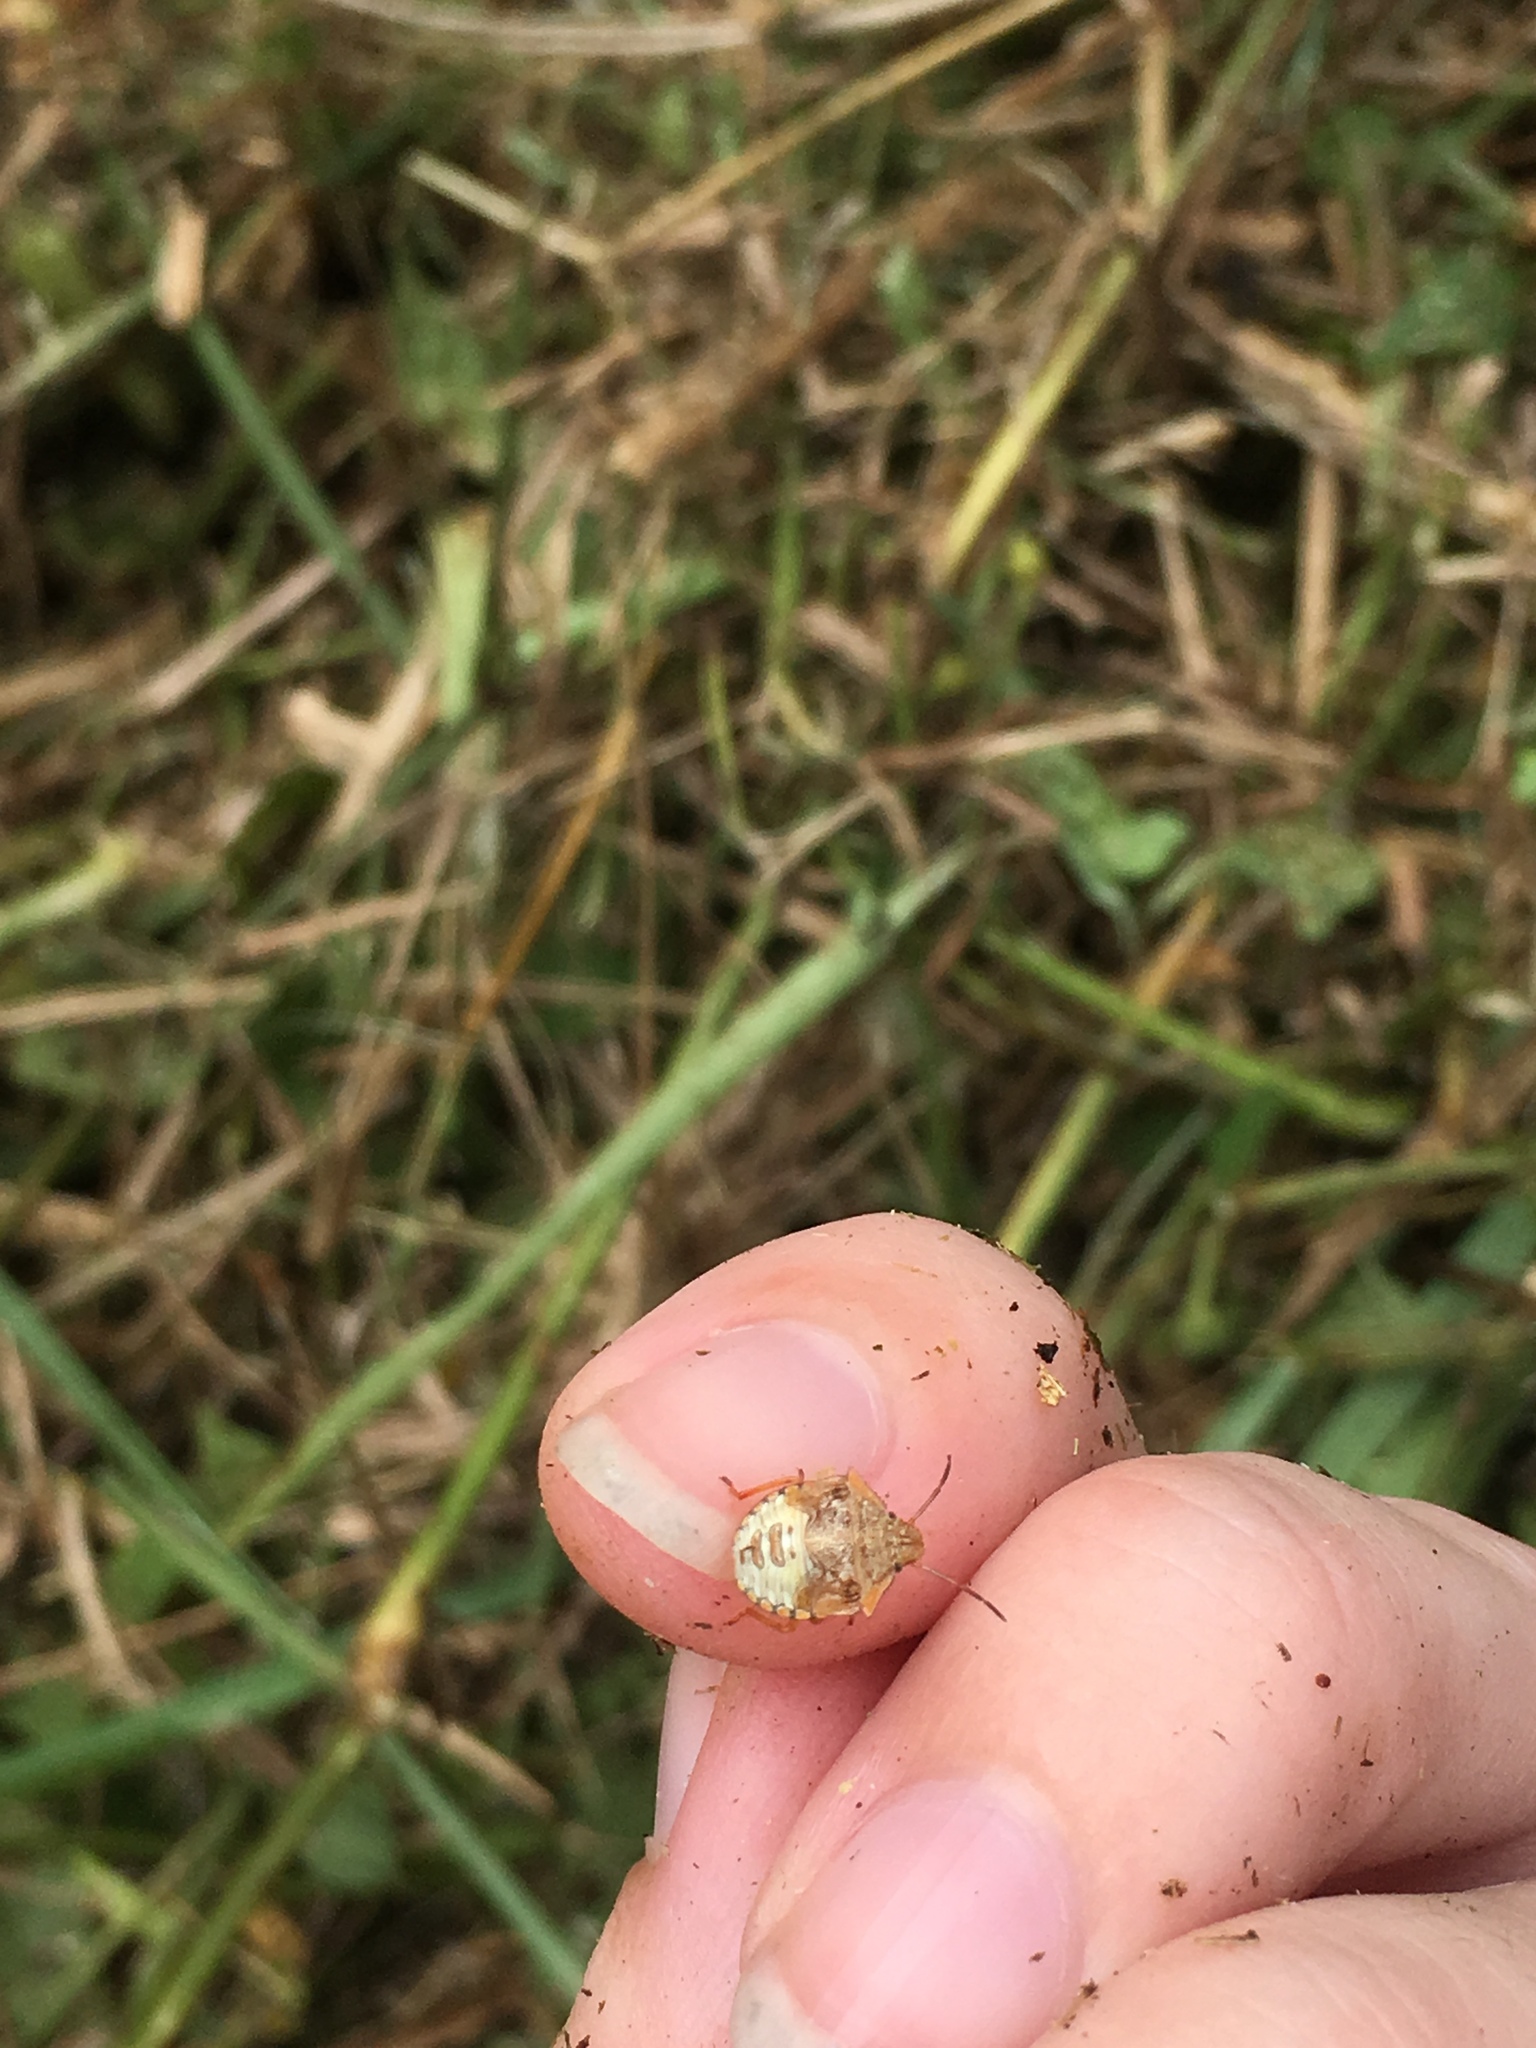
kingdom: Animalia
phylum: Arthropoda
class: Insecta
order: Hemiptera
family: Pentatomidae
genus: Thyanta
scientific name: Thyanta perditor
